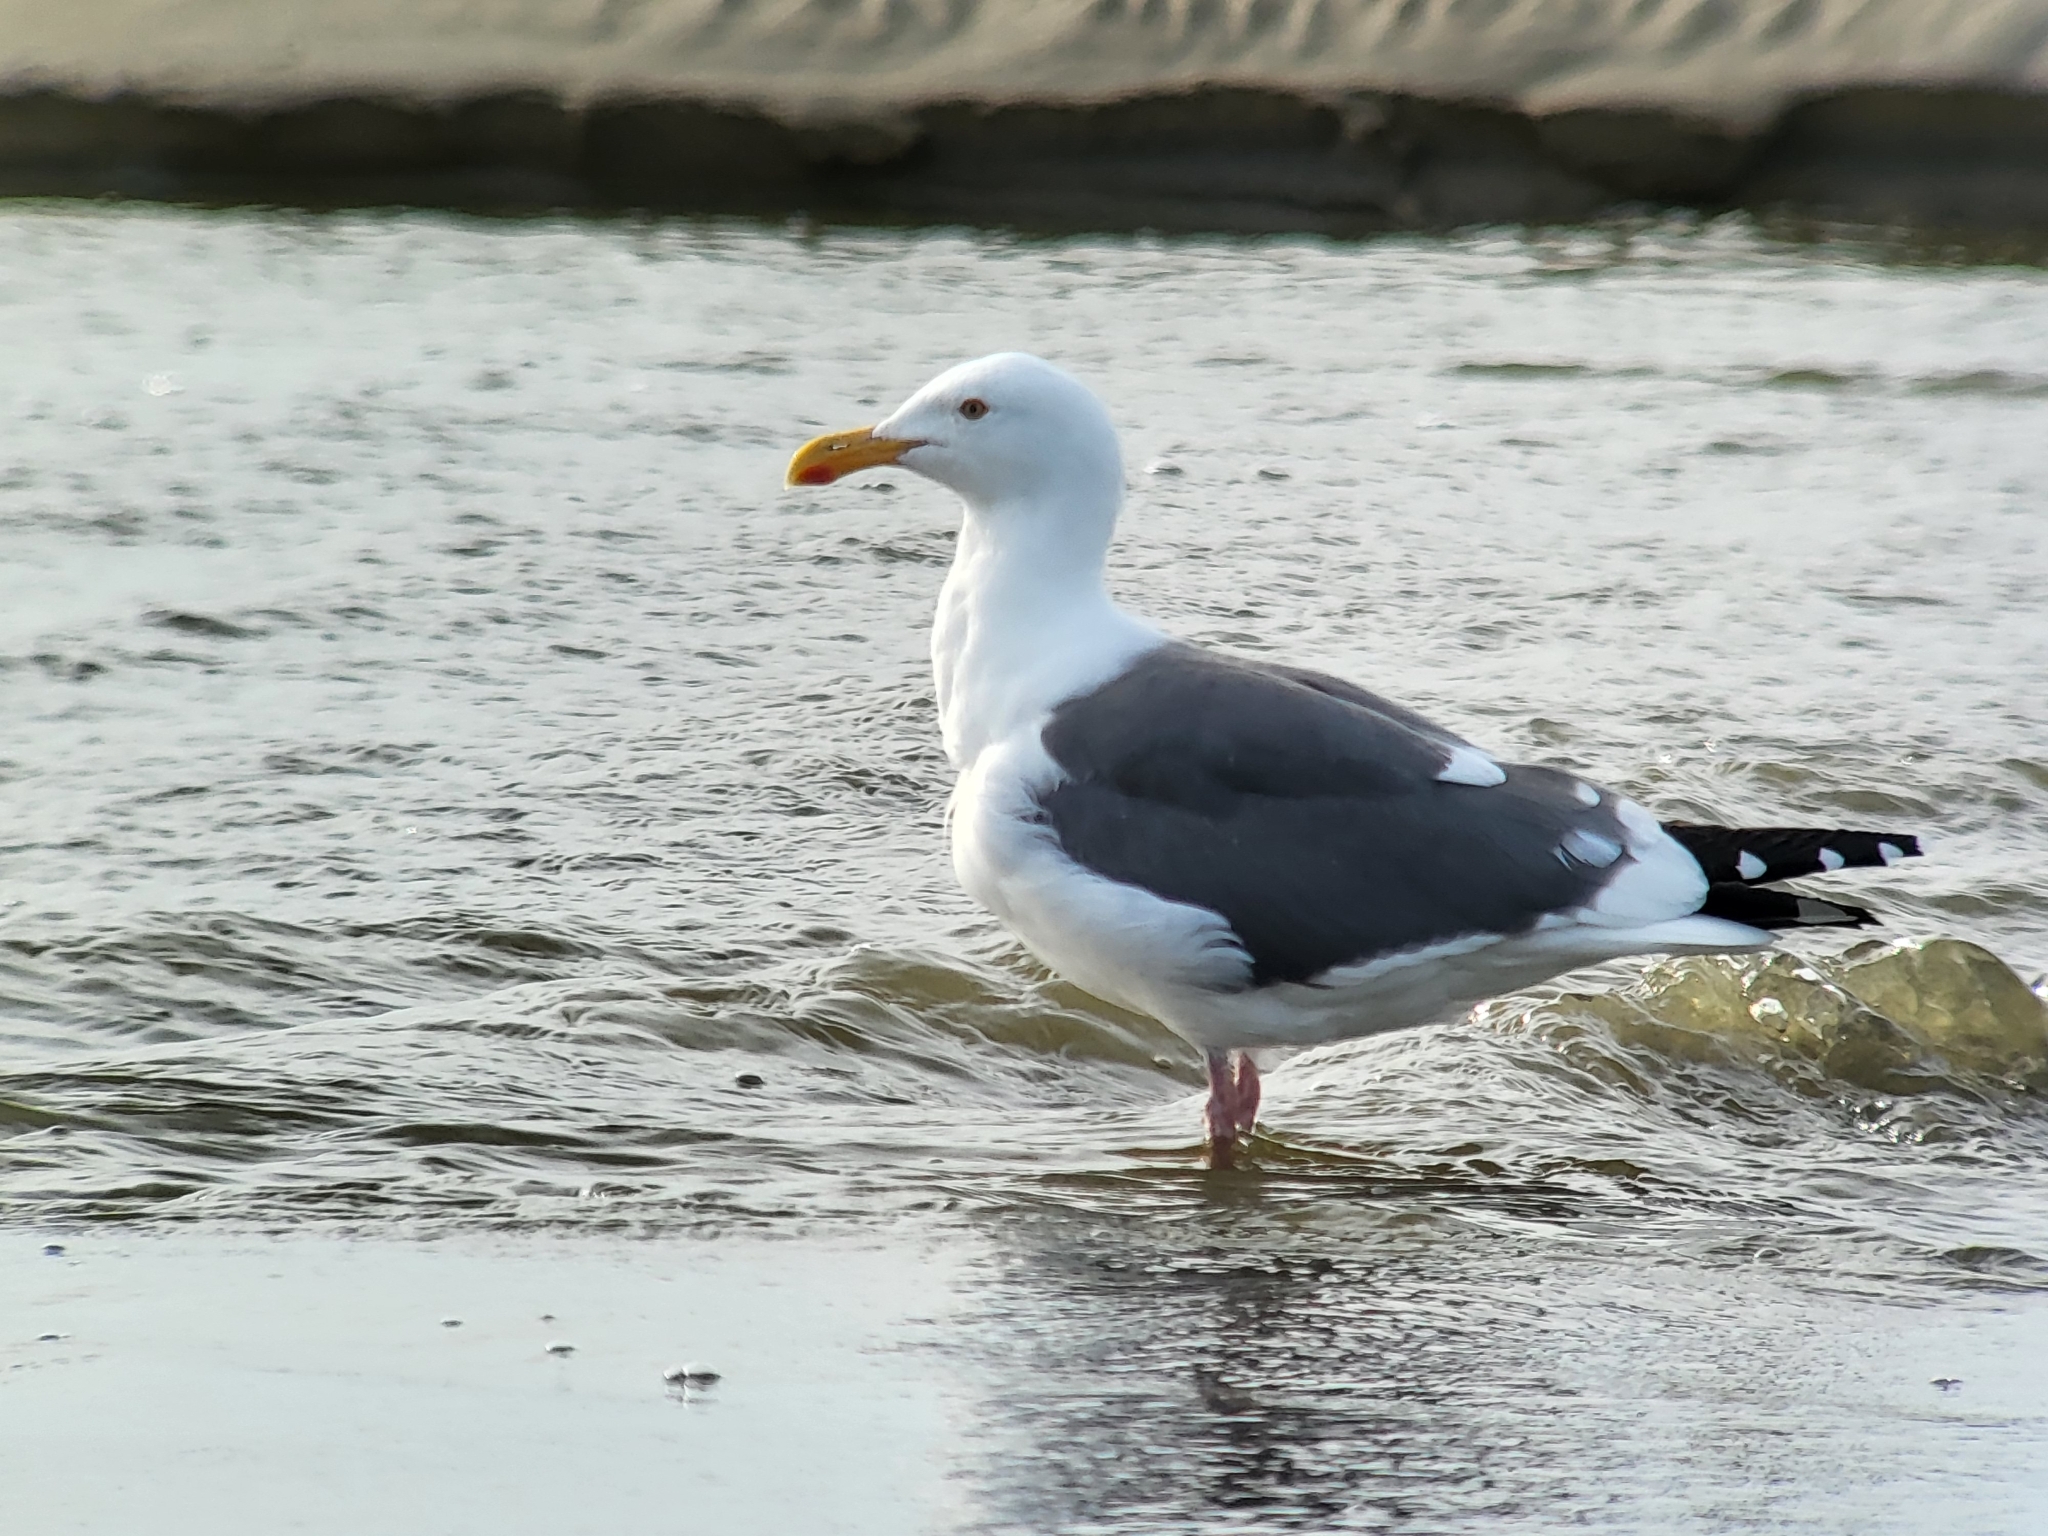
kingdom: Animalia
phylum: Chordata
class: Aves
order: Charadriiformes
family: Laridae
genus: Larus
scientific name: Larus occidentalis
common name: Western gull
